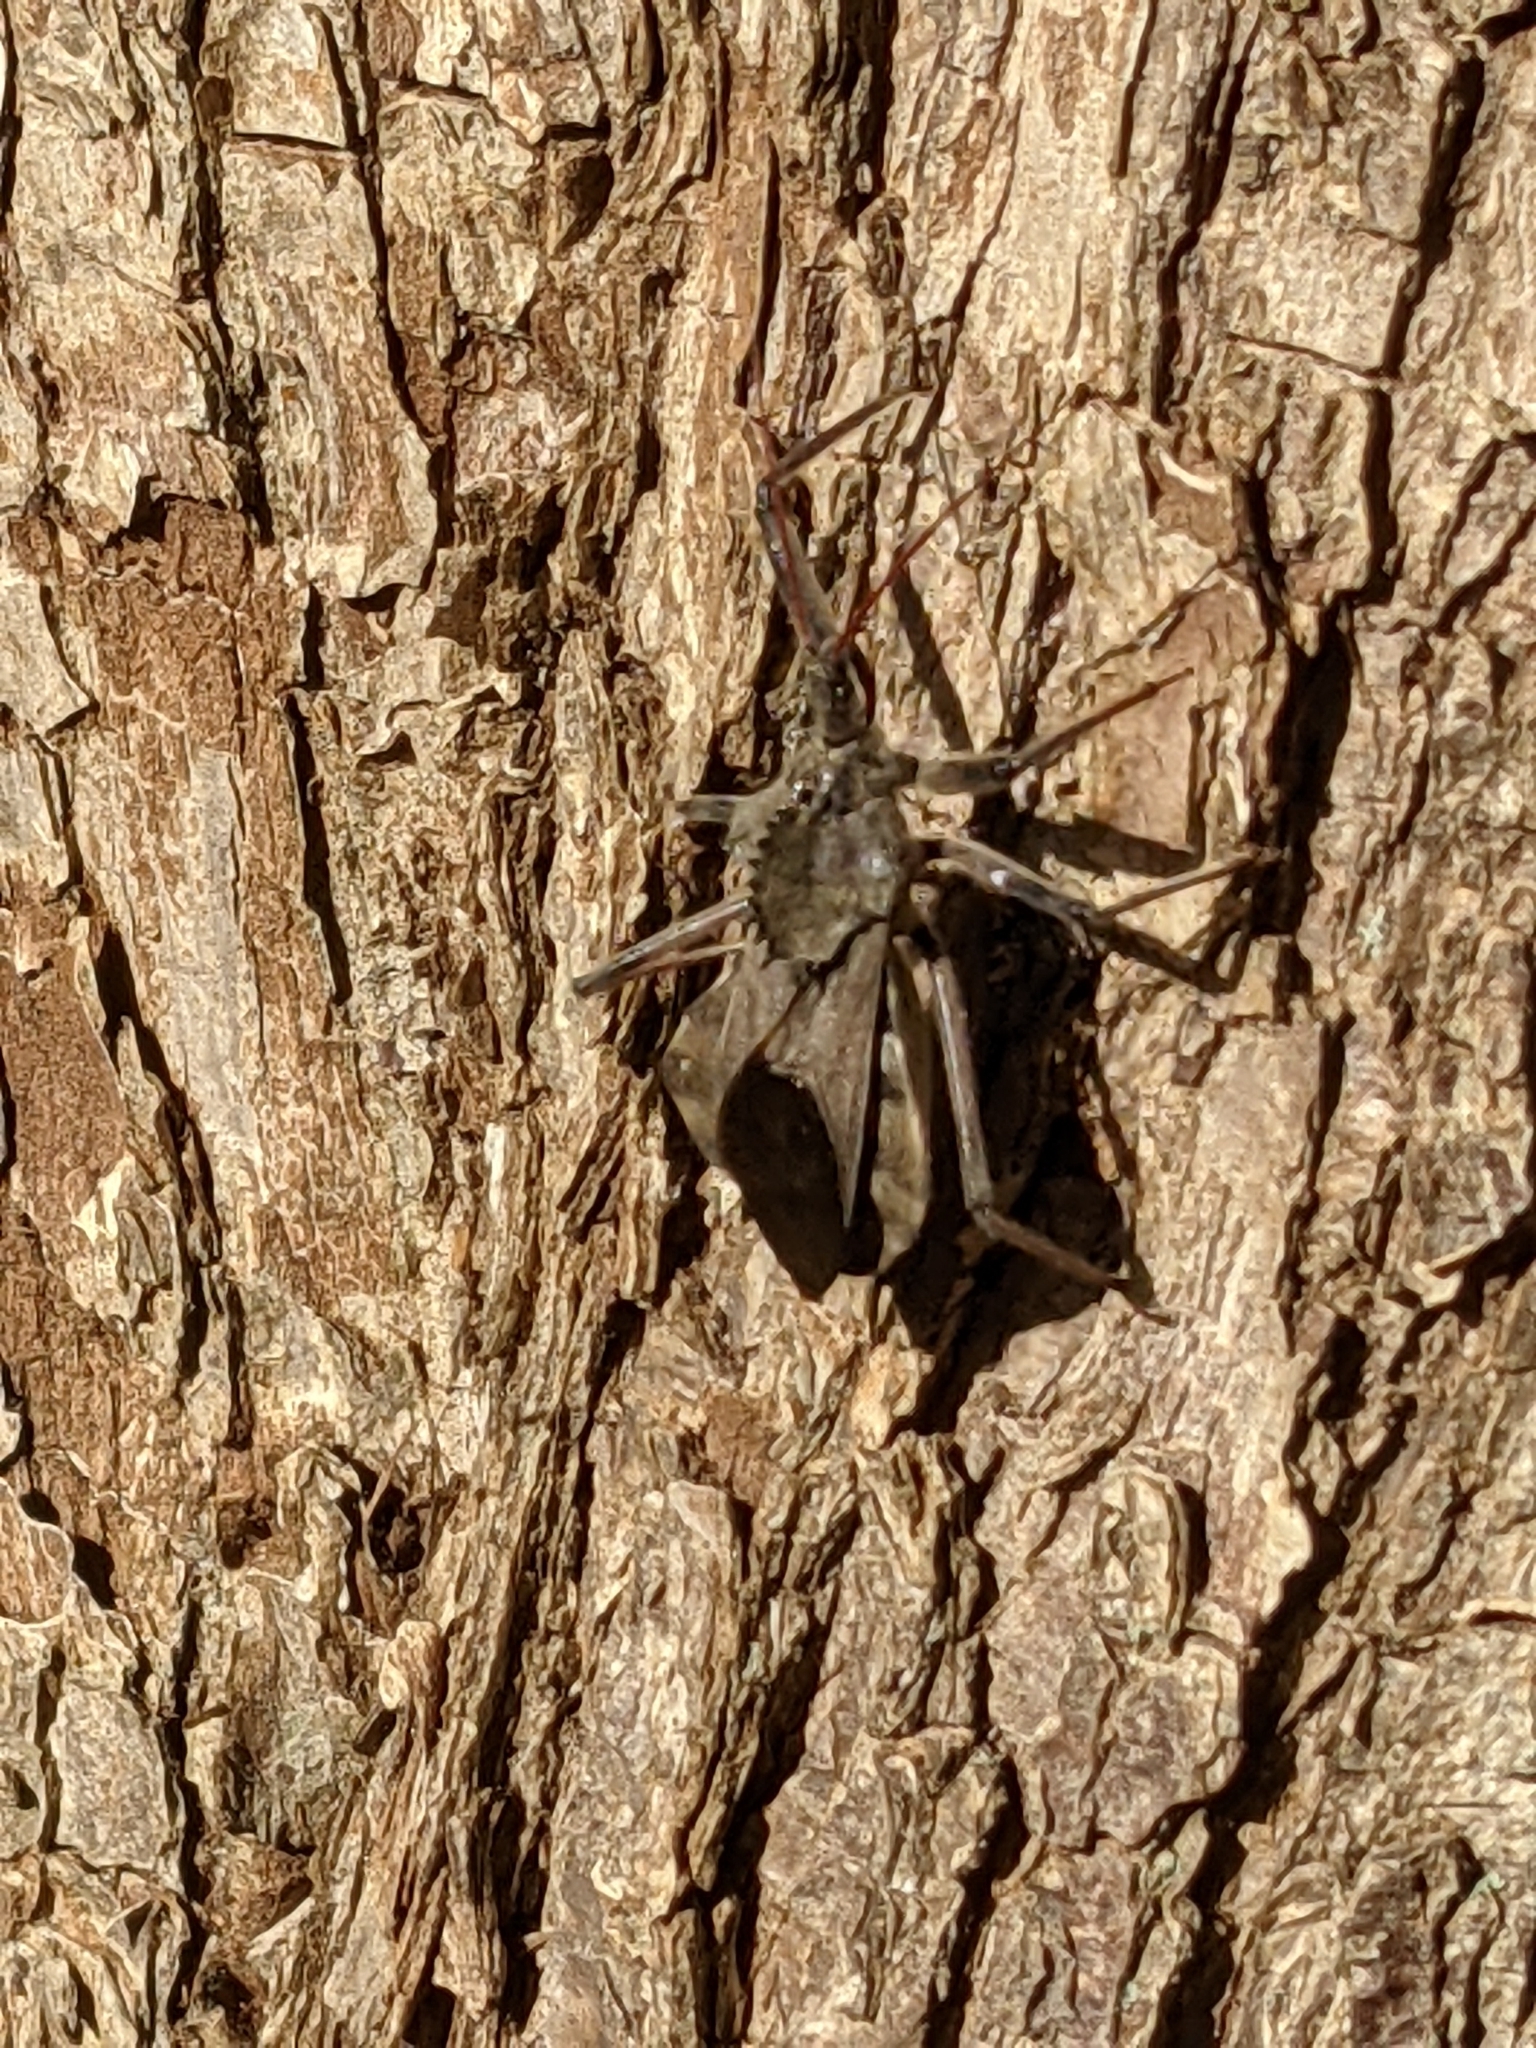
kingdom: Animalia
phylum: Arthropoda
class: Insecta
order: Hemiptera
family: Reduviidae
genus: Arilus
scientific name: Arilus cristatus
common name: North american wheel bug
